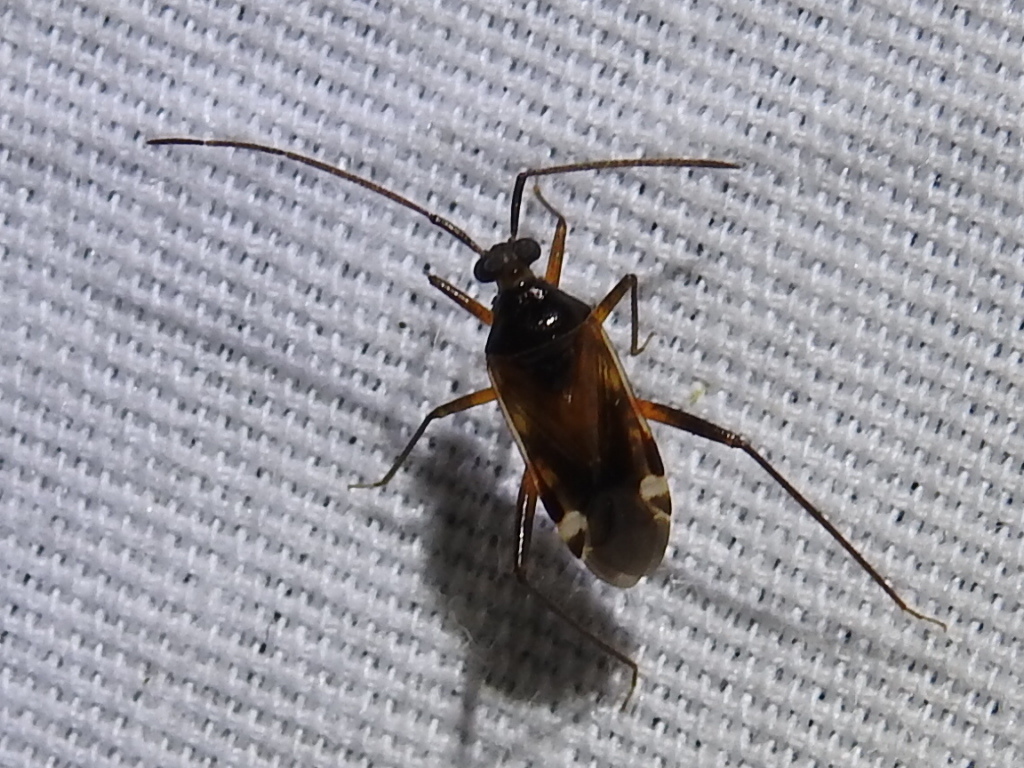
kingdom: Animalia
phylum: Arthropoda
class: Insecta
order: Hemiptera
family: Miridae
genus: Eustictus
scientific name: Eustictus albomaculatus
